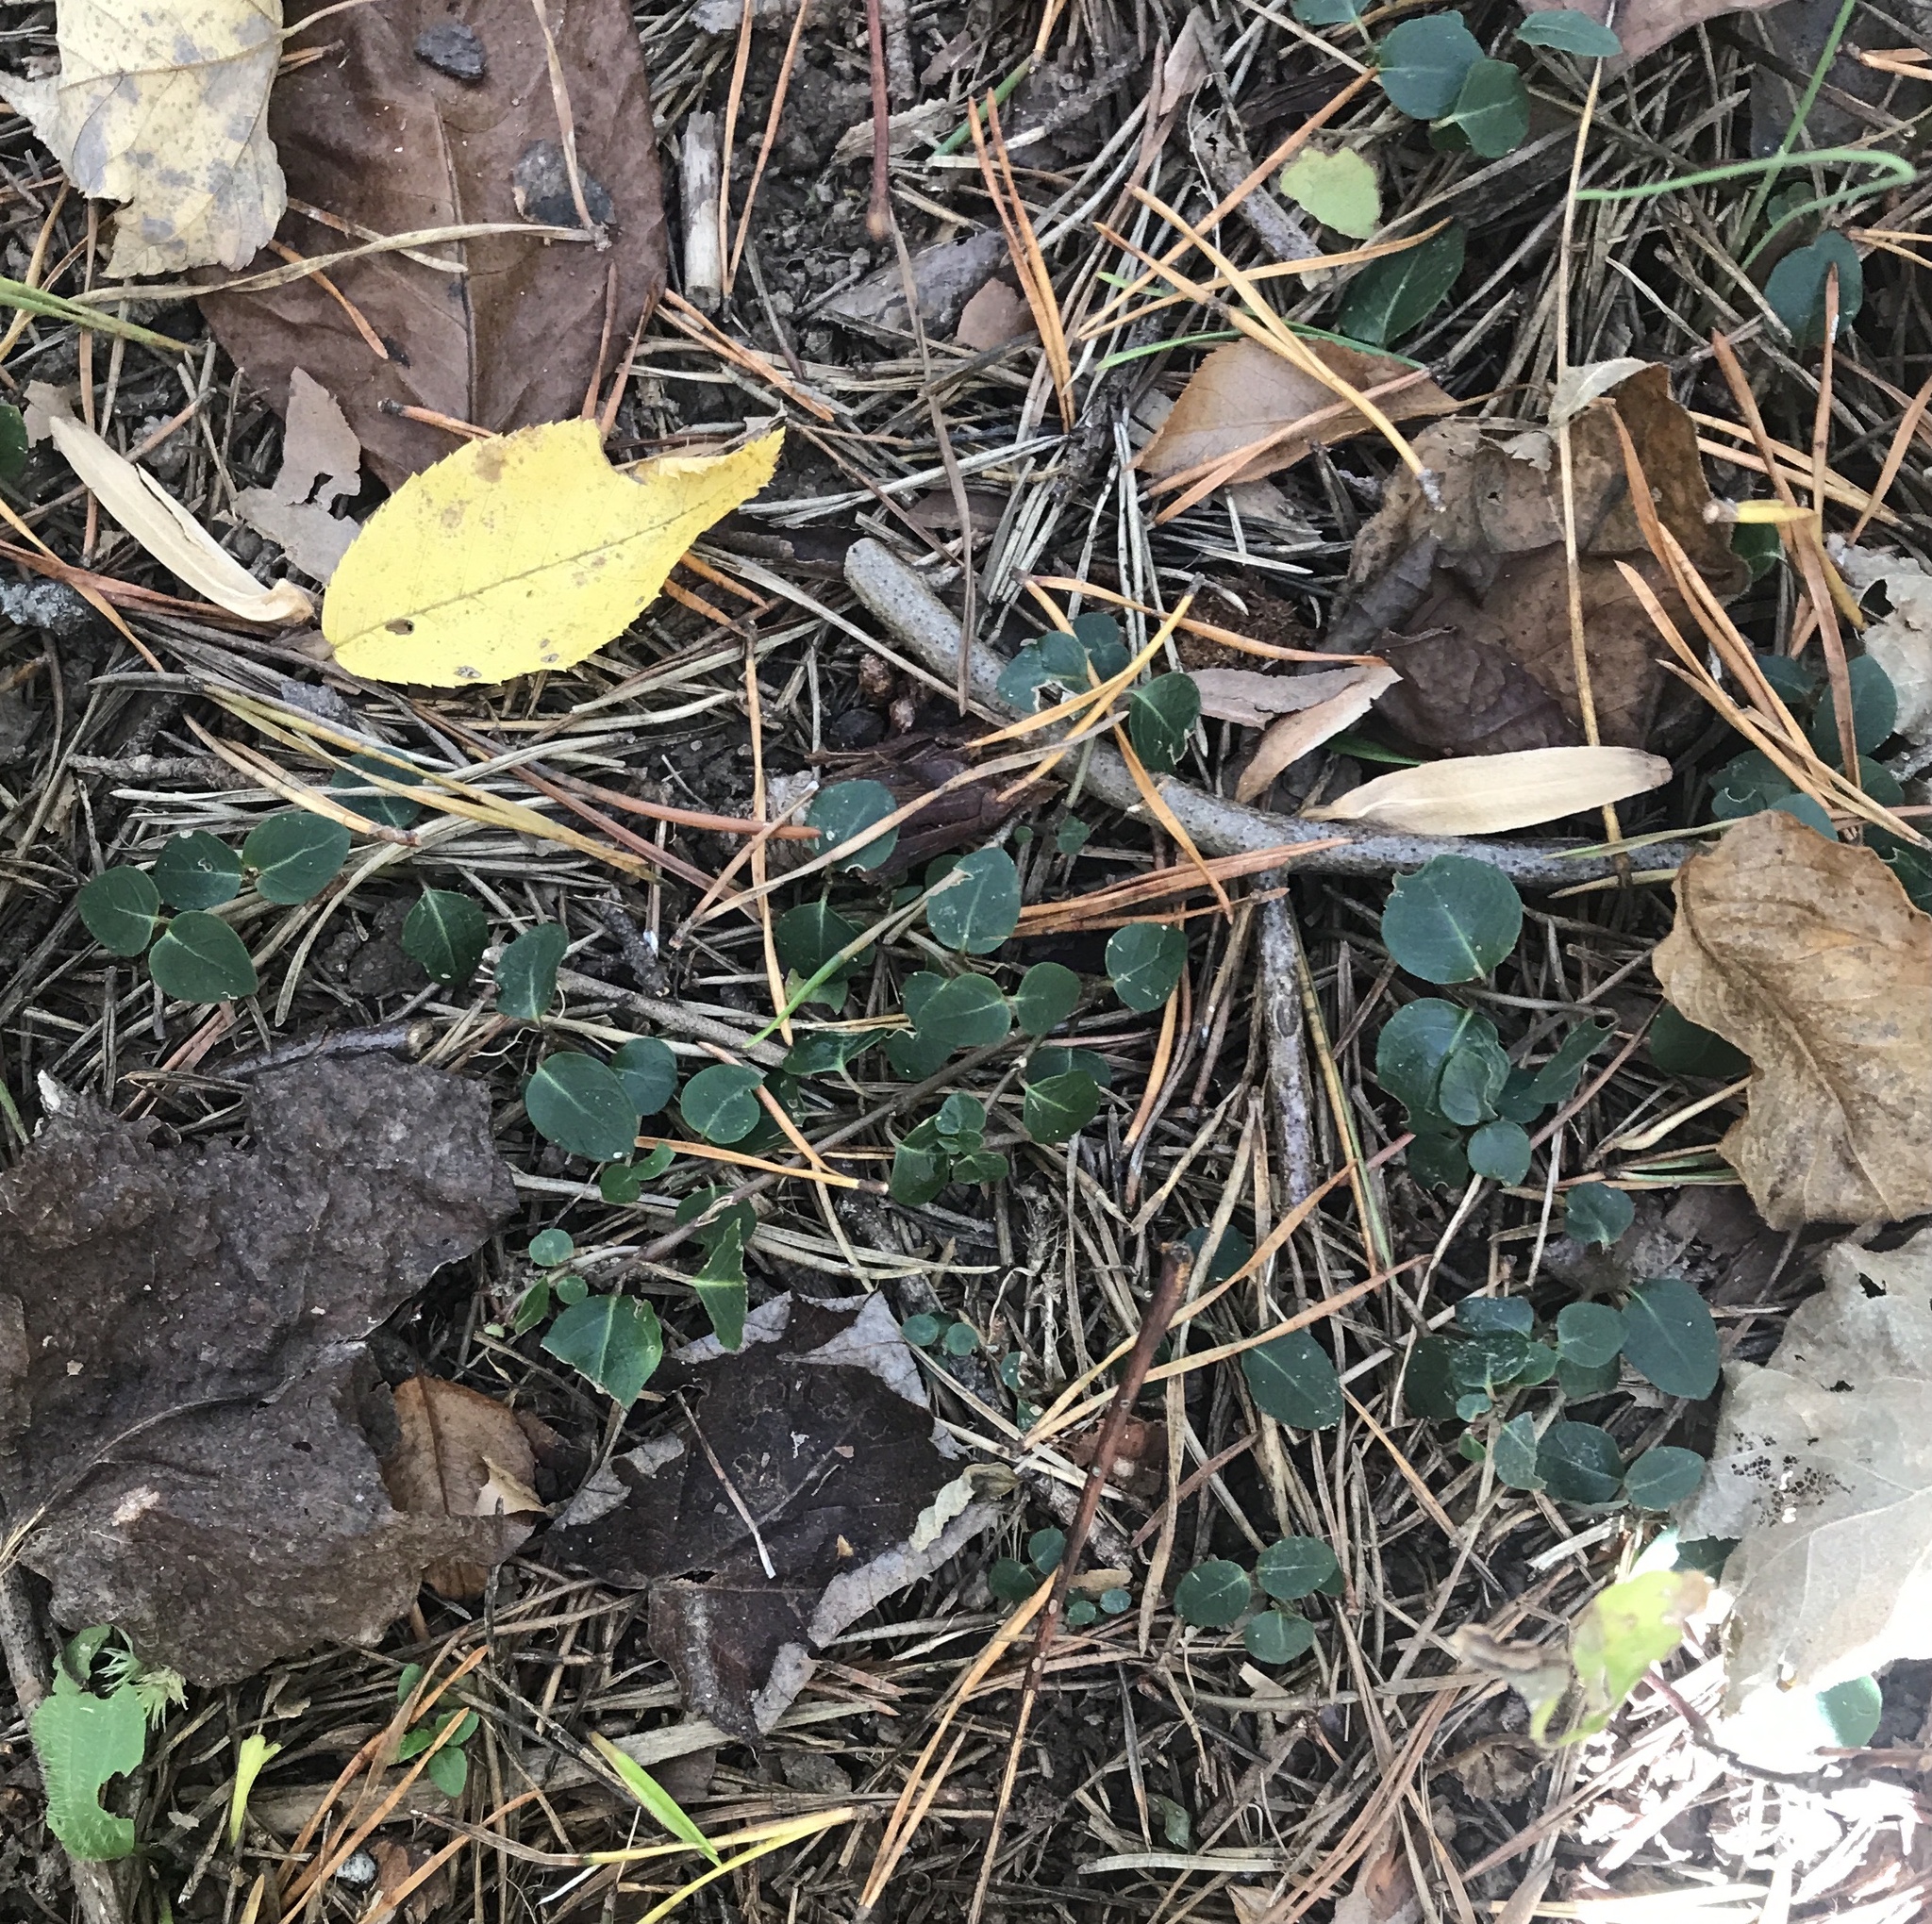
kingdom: Plantae
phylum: Tracheophyta
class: Magnoliopsida
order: Gentianales
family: Rubiaceae
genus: Mitchella
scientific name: Mitchella repens
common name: Partridge-berry
